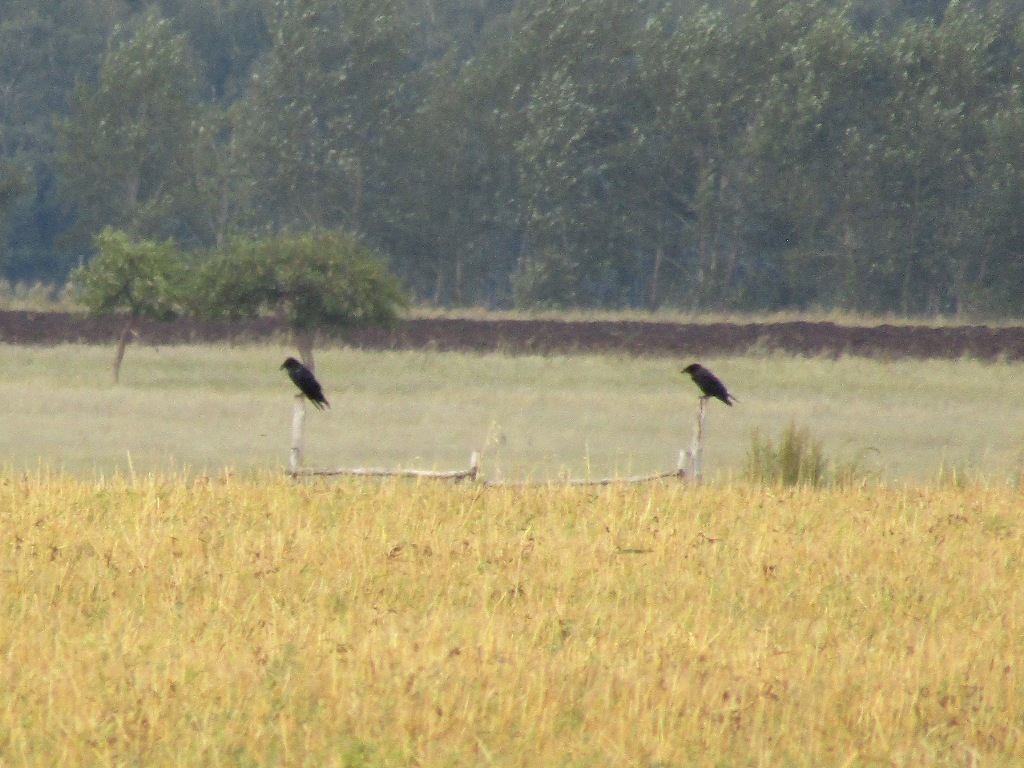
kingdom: Animalia
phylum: Chordata
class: Aves
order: Passeriformes
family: Corvidae
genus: Corvus
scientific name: Corvus corax
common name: Common raven
